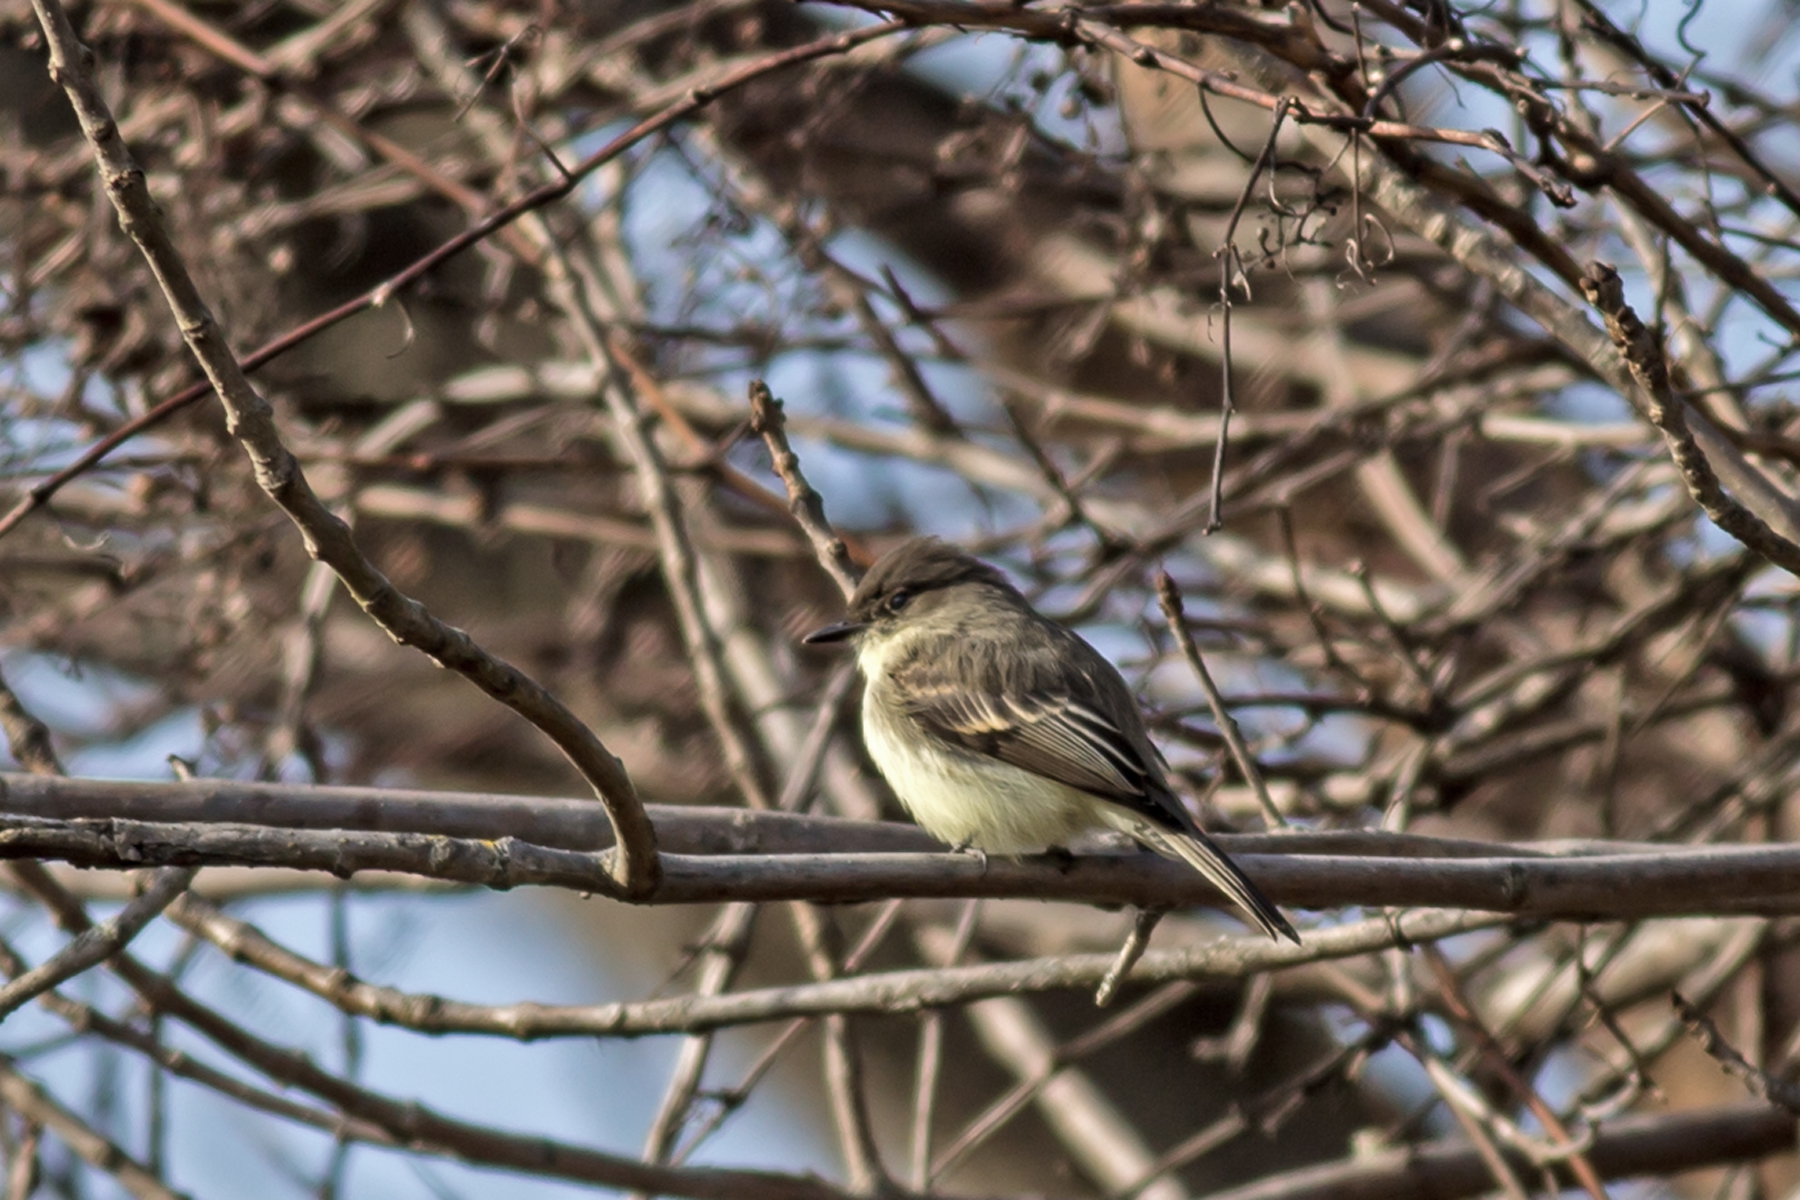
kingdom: Animalia
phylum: Chordata
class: Aves
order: Passeriformes
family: Tyrannidae
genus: Sayornis
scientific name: Sayornis phoebe
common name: Eastern phoebe
